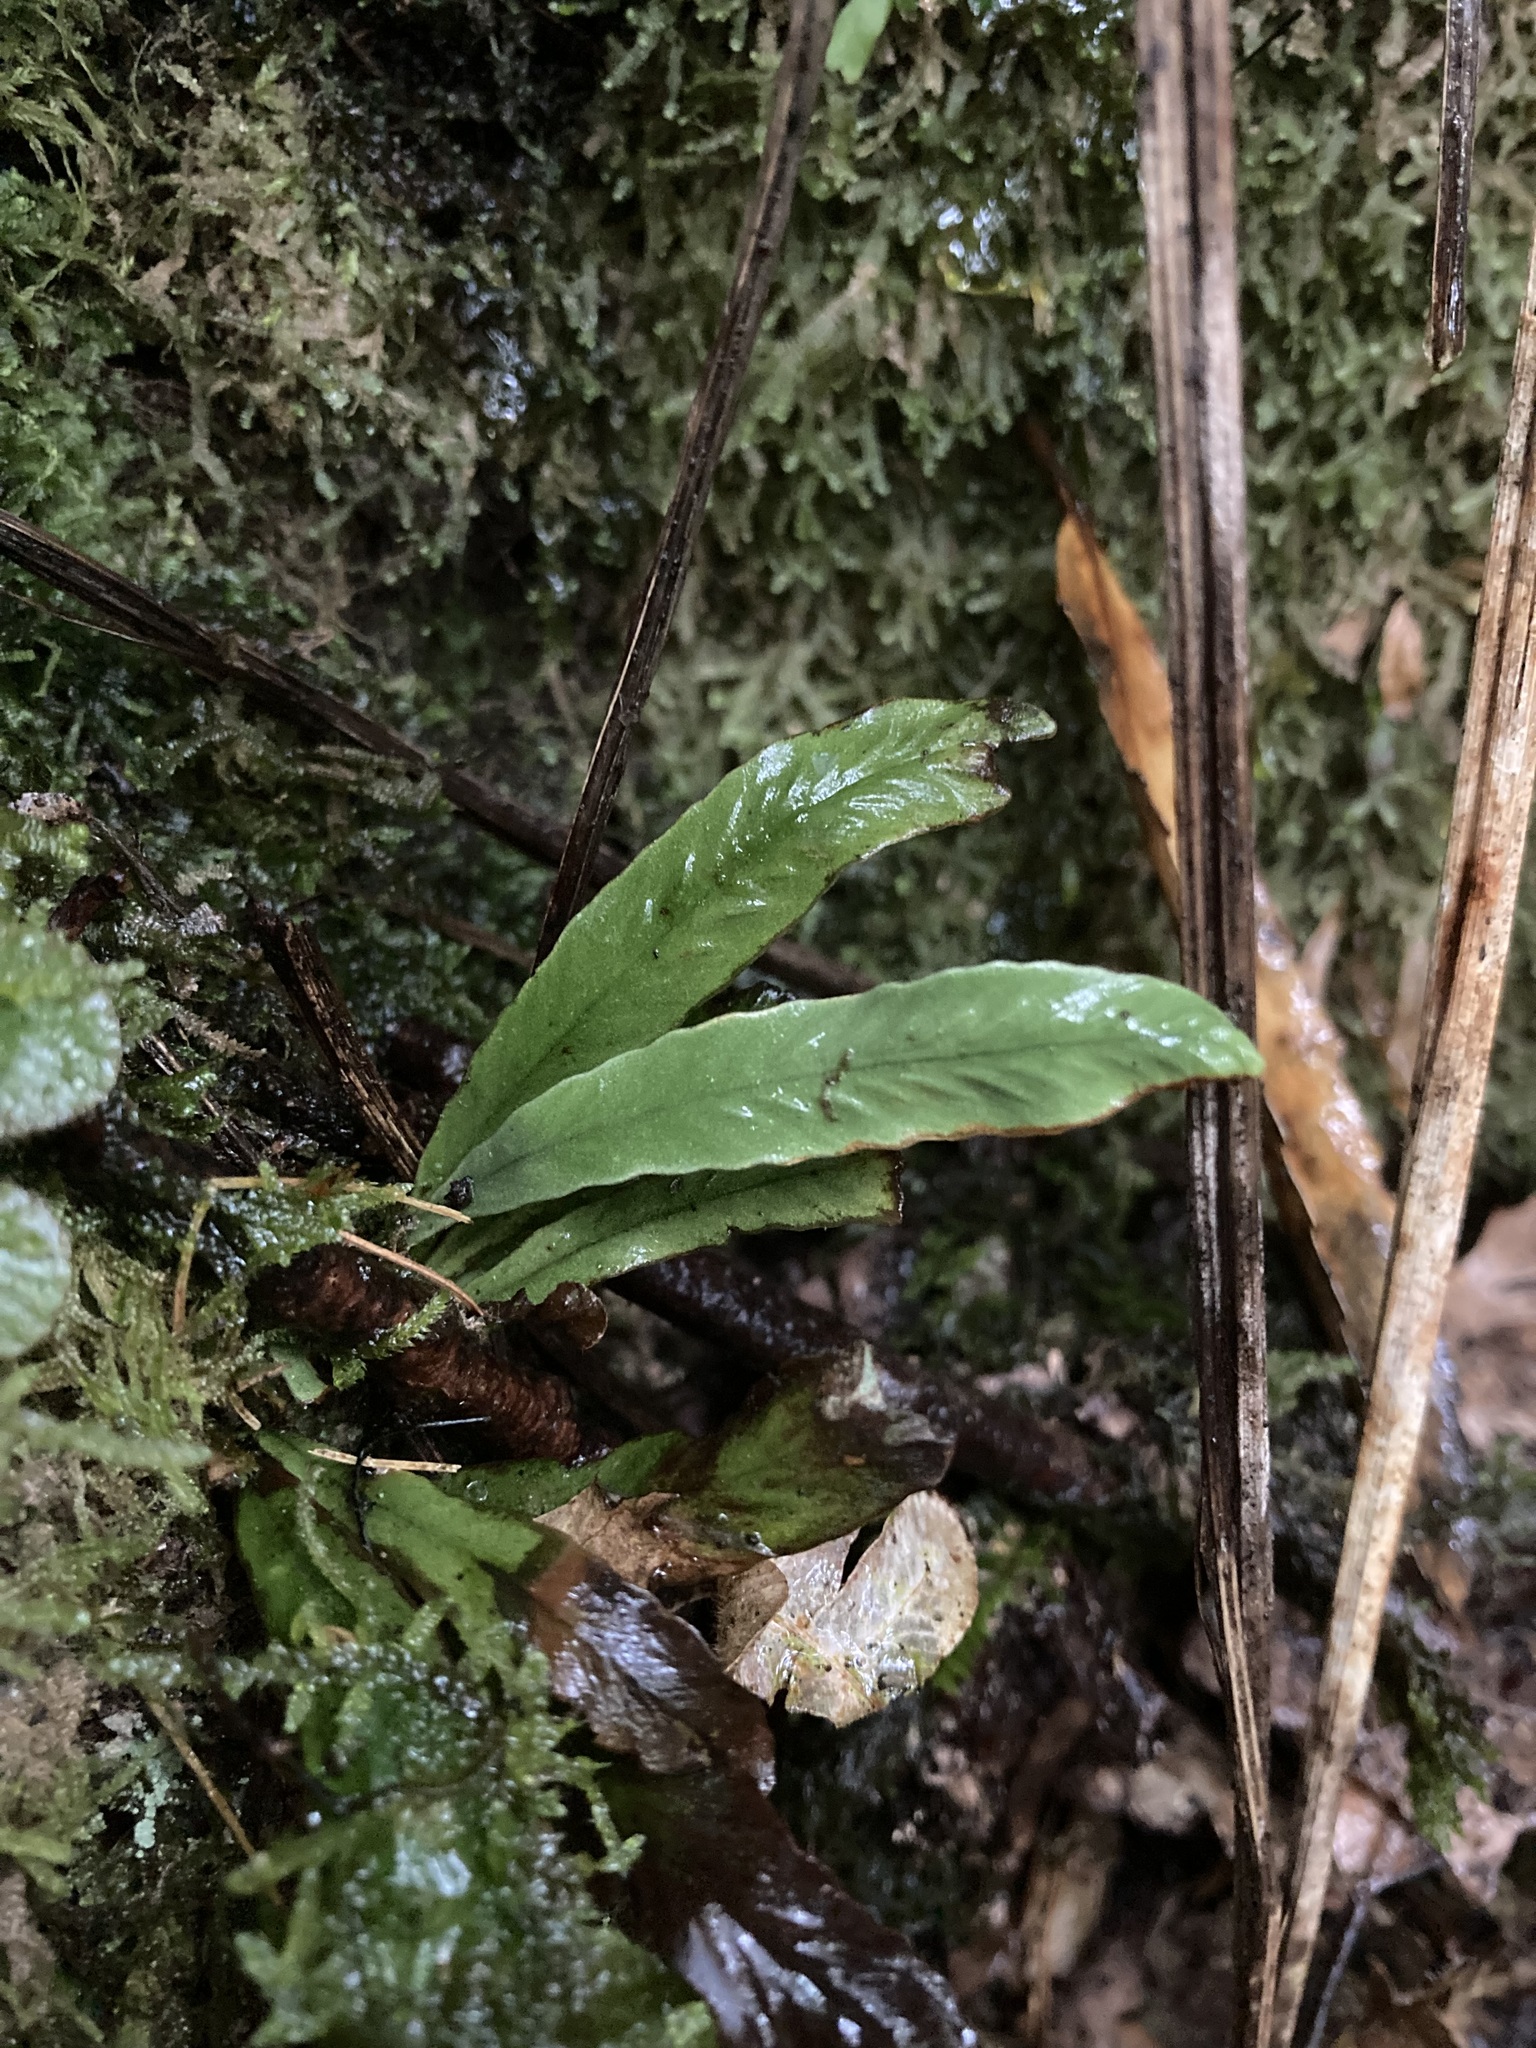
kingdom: Plantae
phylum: Tracheophyta
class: Polypodiopsida
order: Polypodiales
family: Polypodiaceae
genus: Notogrammitis
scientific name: Notogrammitis billardierei
